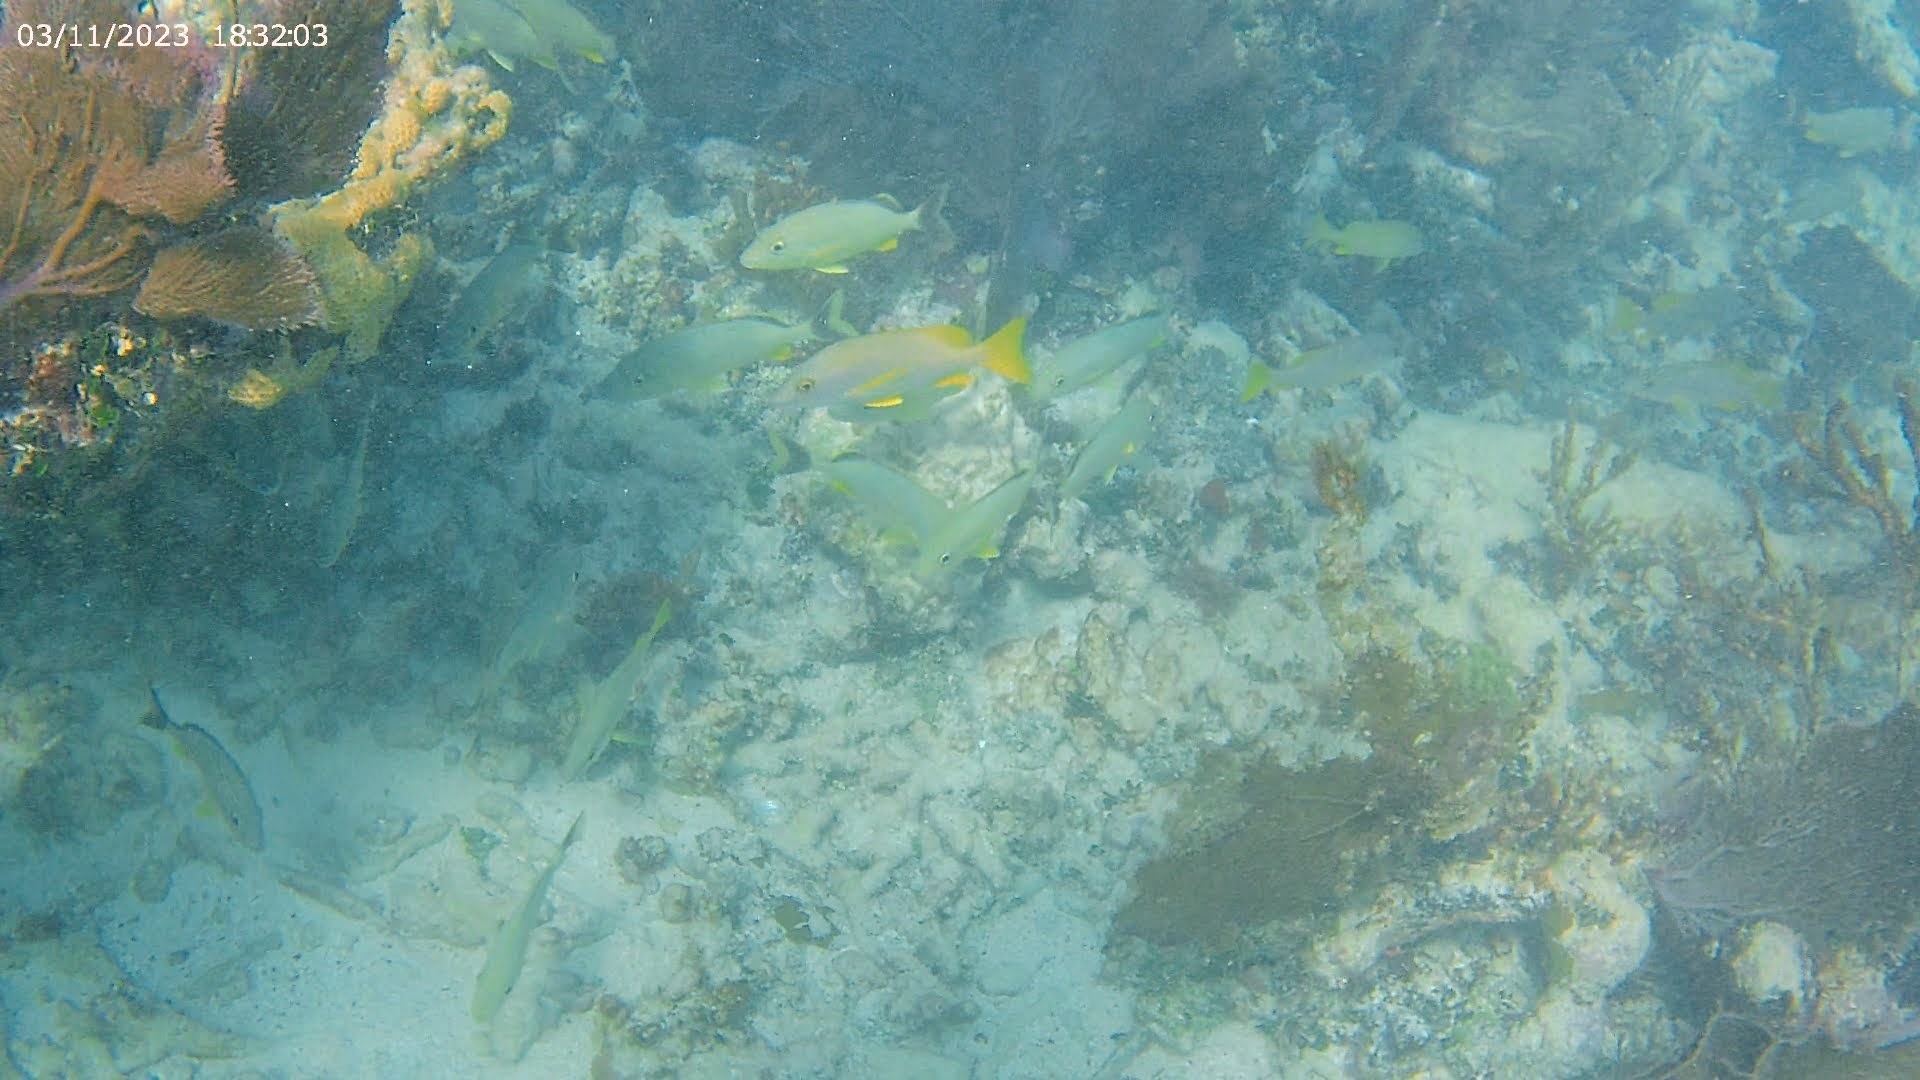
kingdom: Animalia
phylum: Chordata
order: Perciformes
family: Lutjanidae
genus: Lutjanus
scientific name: Lutjanus apodus
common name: Schoolmaster
